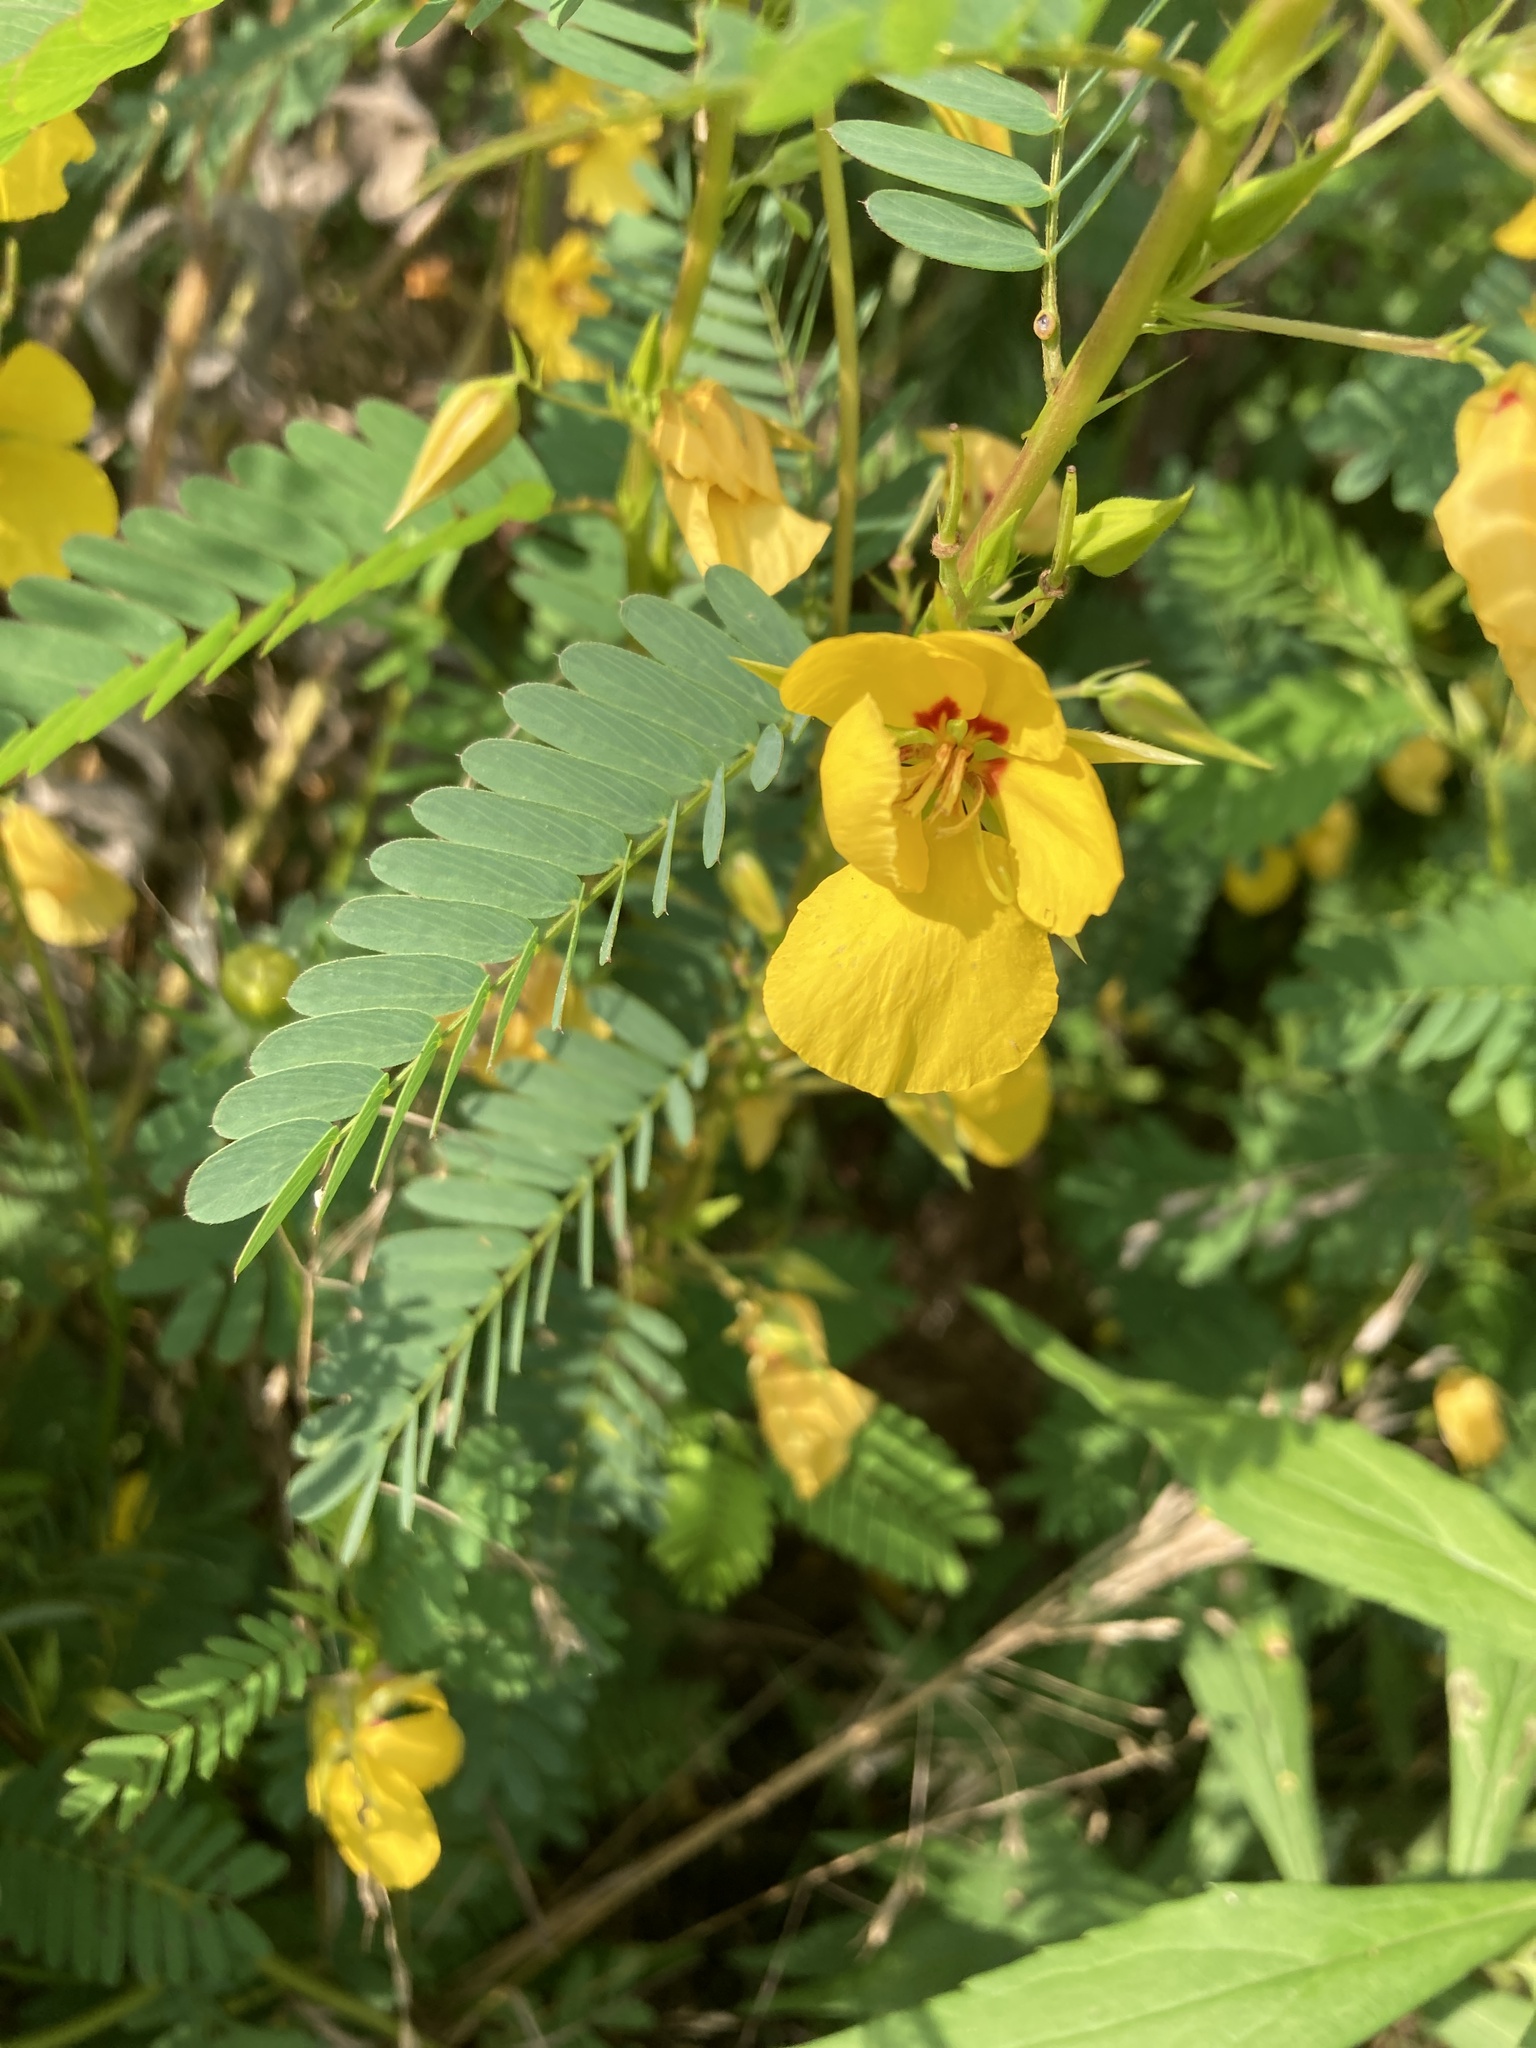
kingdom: Plantae
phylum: Tracheophyta
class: Magnoliopsida
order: Fabales
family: Fabaceae
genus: Chamaecrista
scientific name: Chamaecrista fasciculata
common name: Golden cassia
